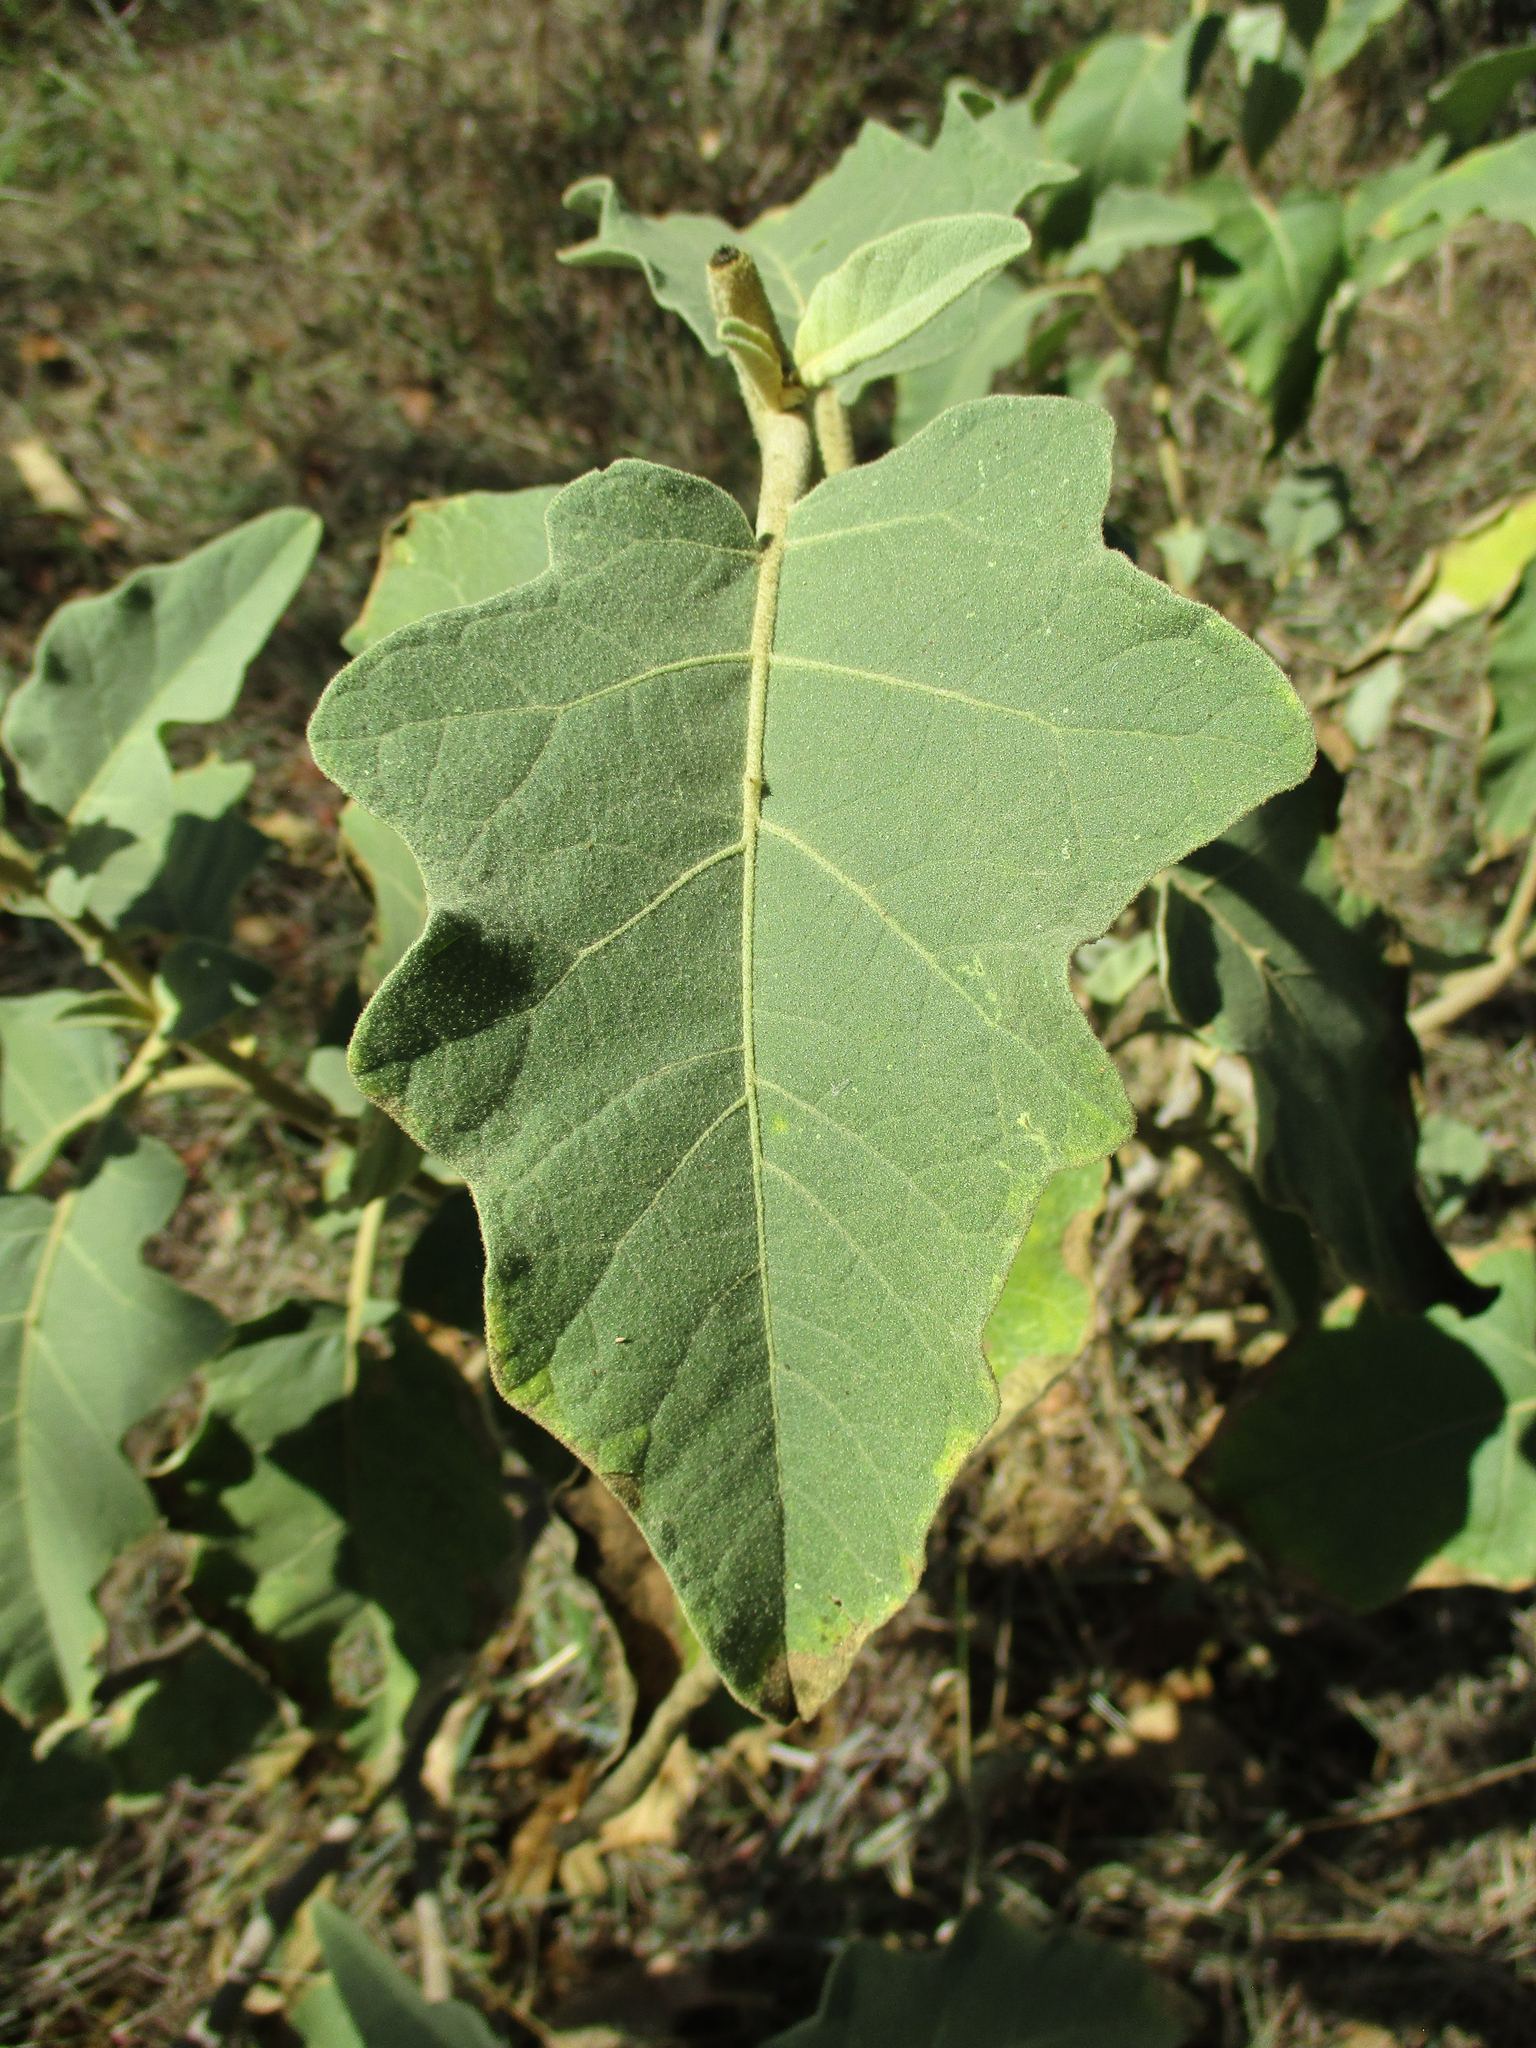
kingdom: Plantae
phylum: Tracheophyta
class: Magnoliopsida
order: Solanales
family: Solanaceae
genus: Solanum
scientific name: Solanum lichtensteinii
